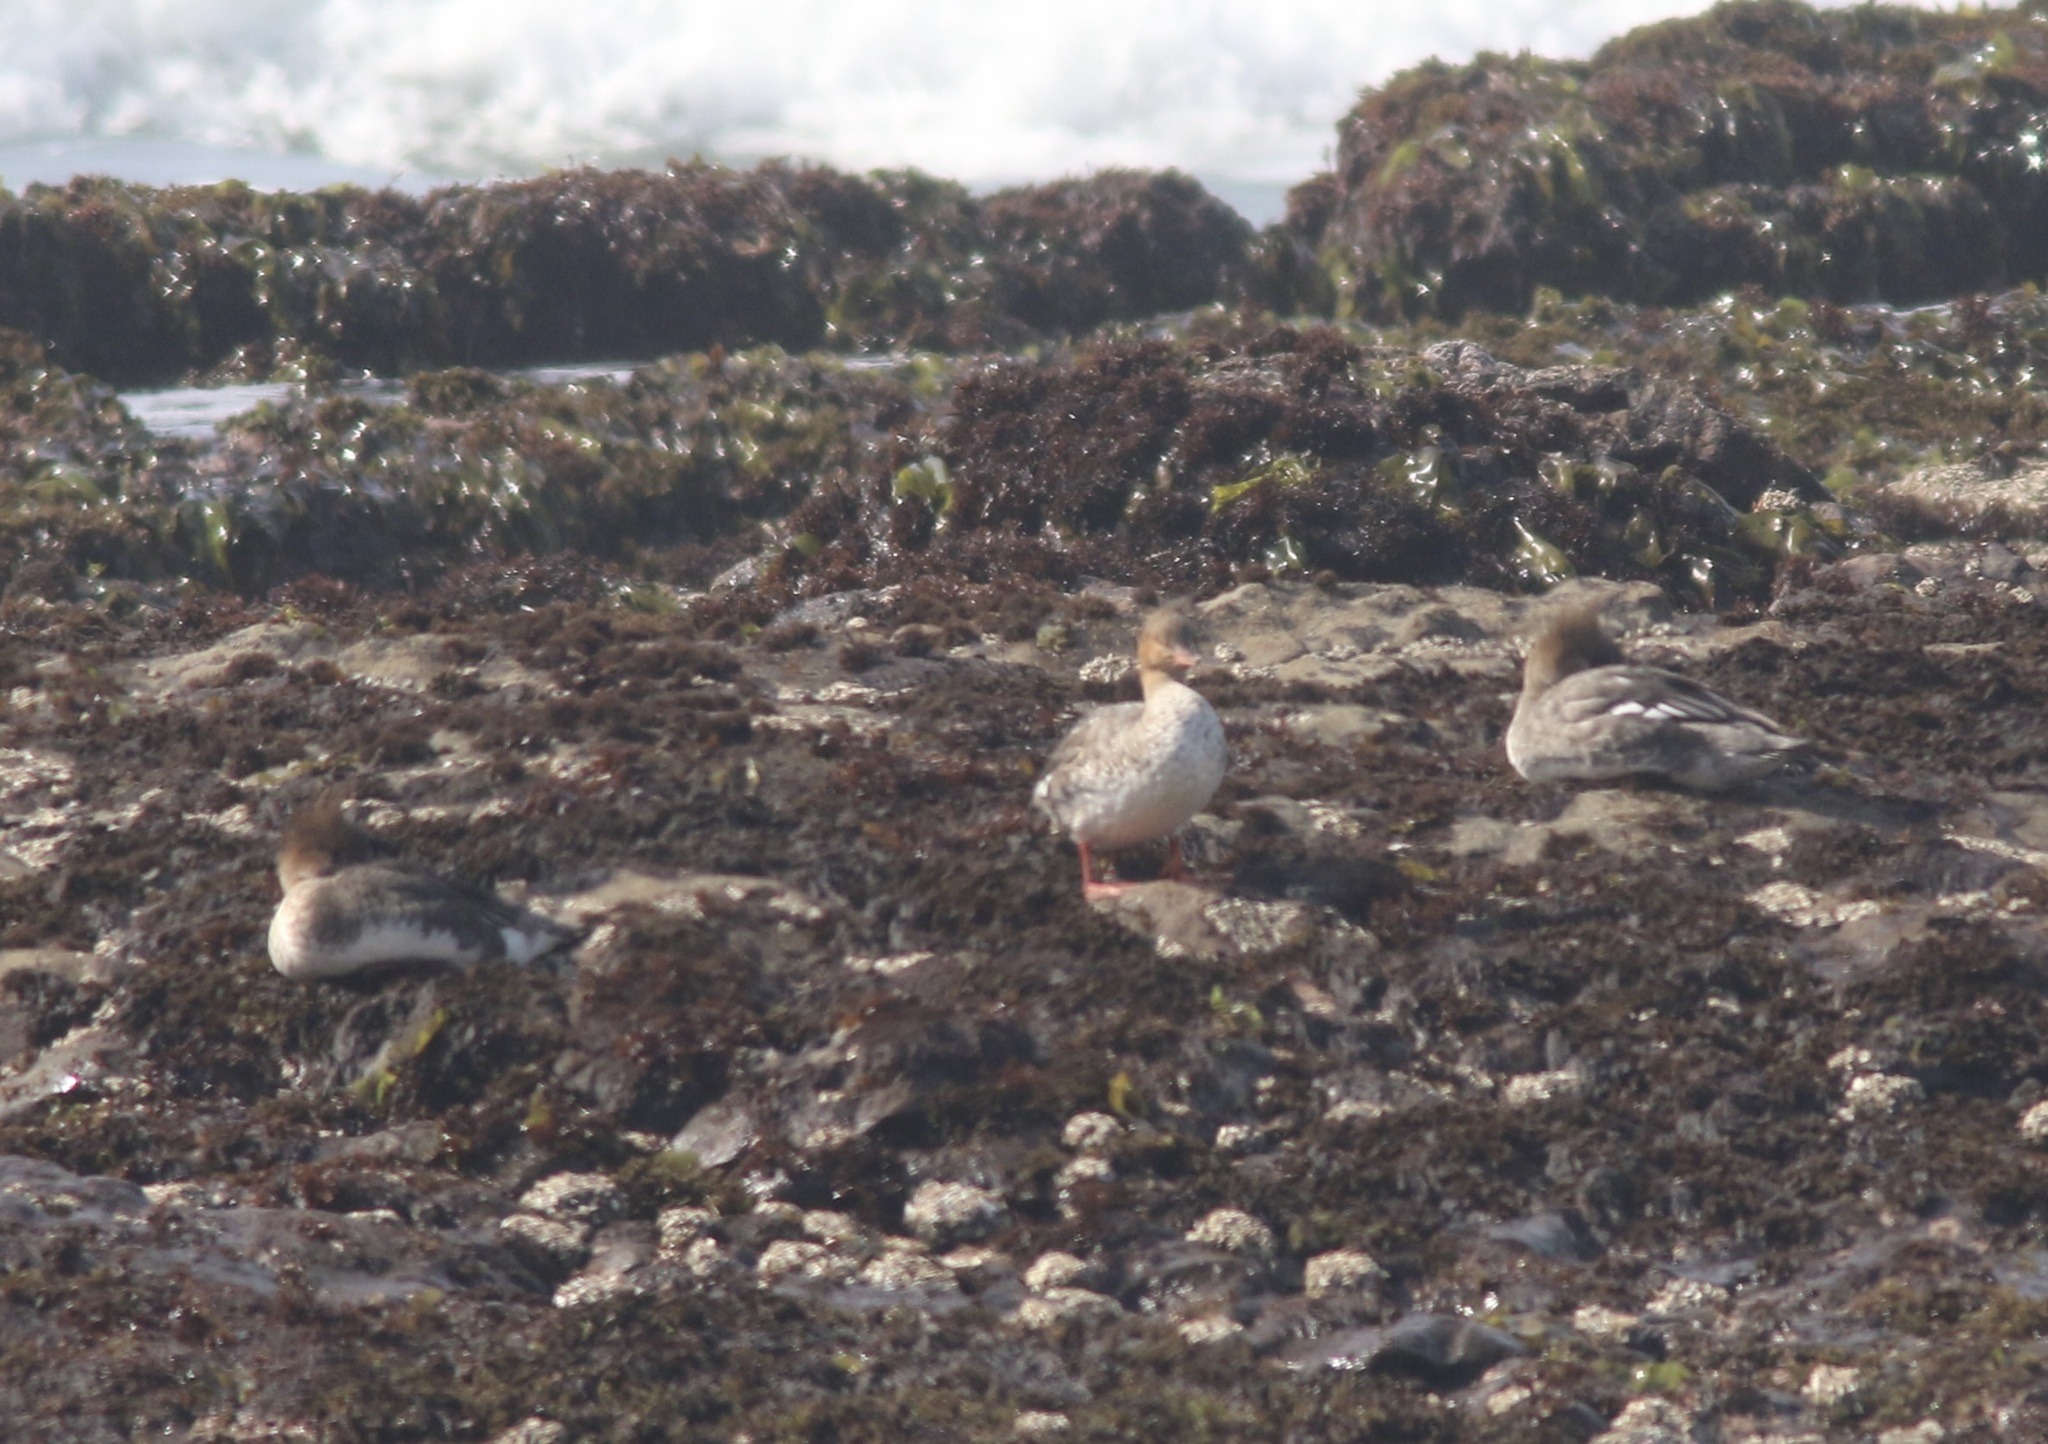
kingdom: Animalia
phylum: Chordata
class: Aves
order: Anseriformes
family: Anatidae
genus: Mergus
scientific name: Mergus serrator
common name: Red-breasted merganser
